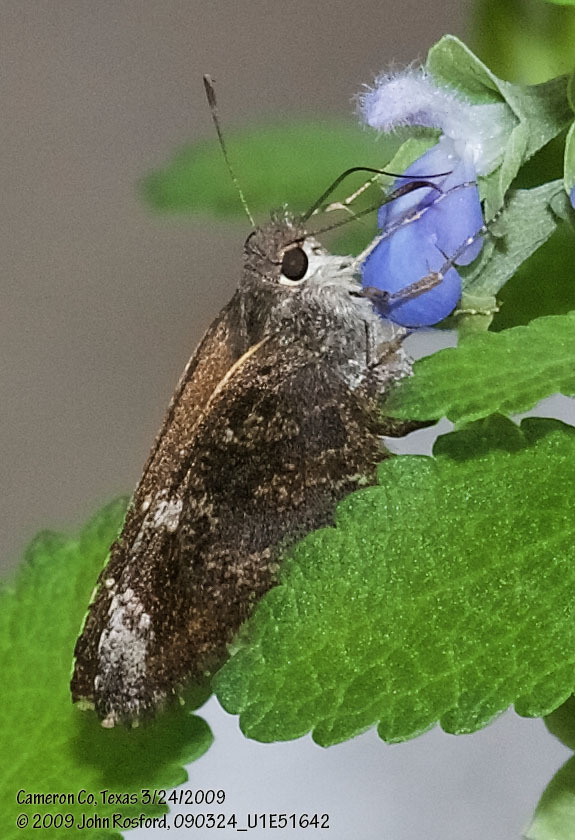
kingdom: Animalia
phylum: Arthropoda
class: Insecta
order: Lepidoptera
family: Hesperiidae
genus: Caicella
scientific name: Caicella calchas
